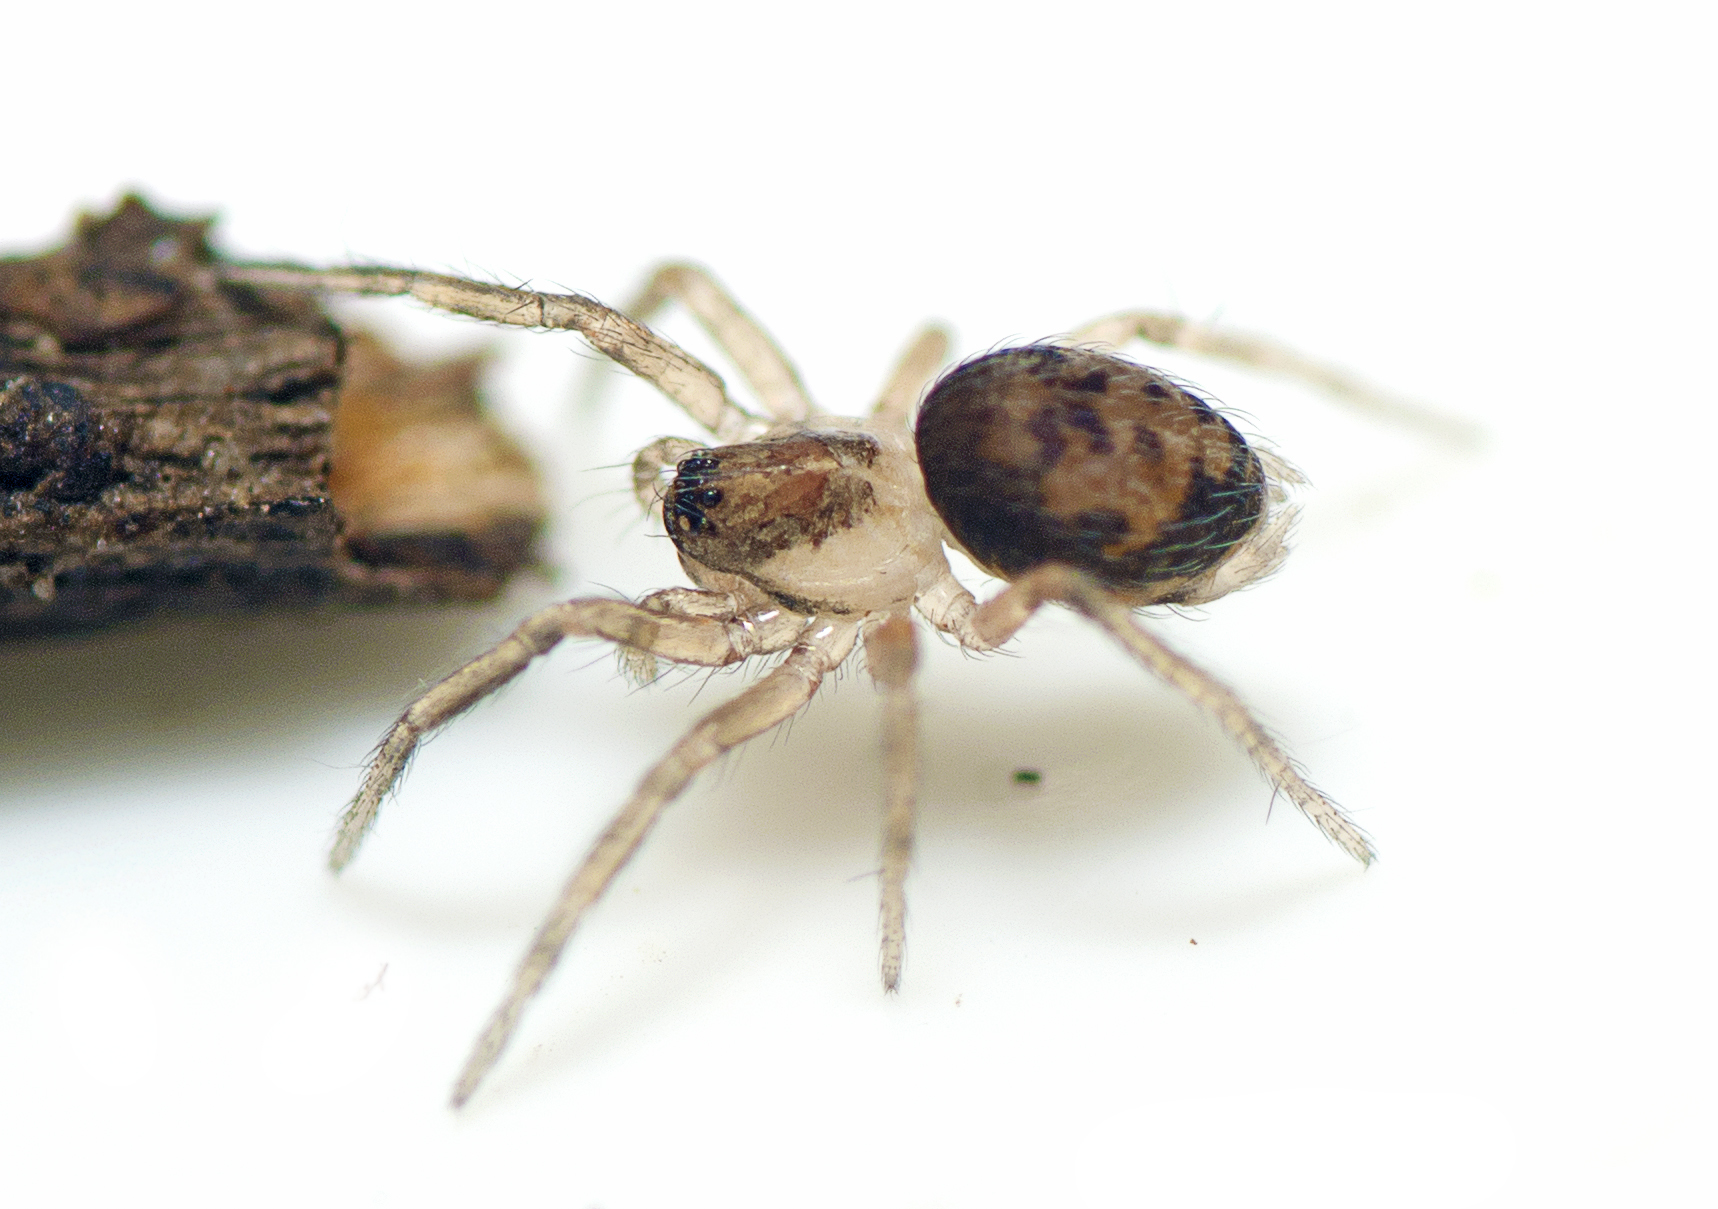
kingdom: Animalia
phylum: Arthropoda
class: Arachnida
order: Araneae
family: Hahniidae
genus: Alistra
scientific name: Alistra
